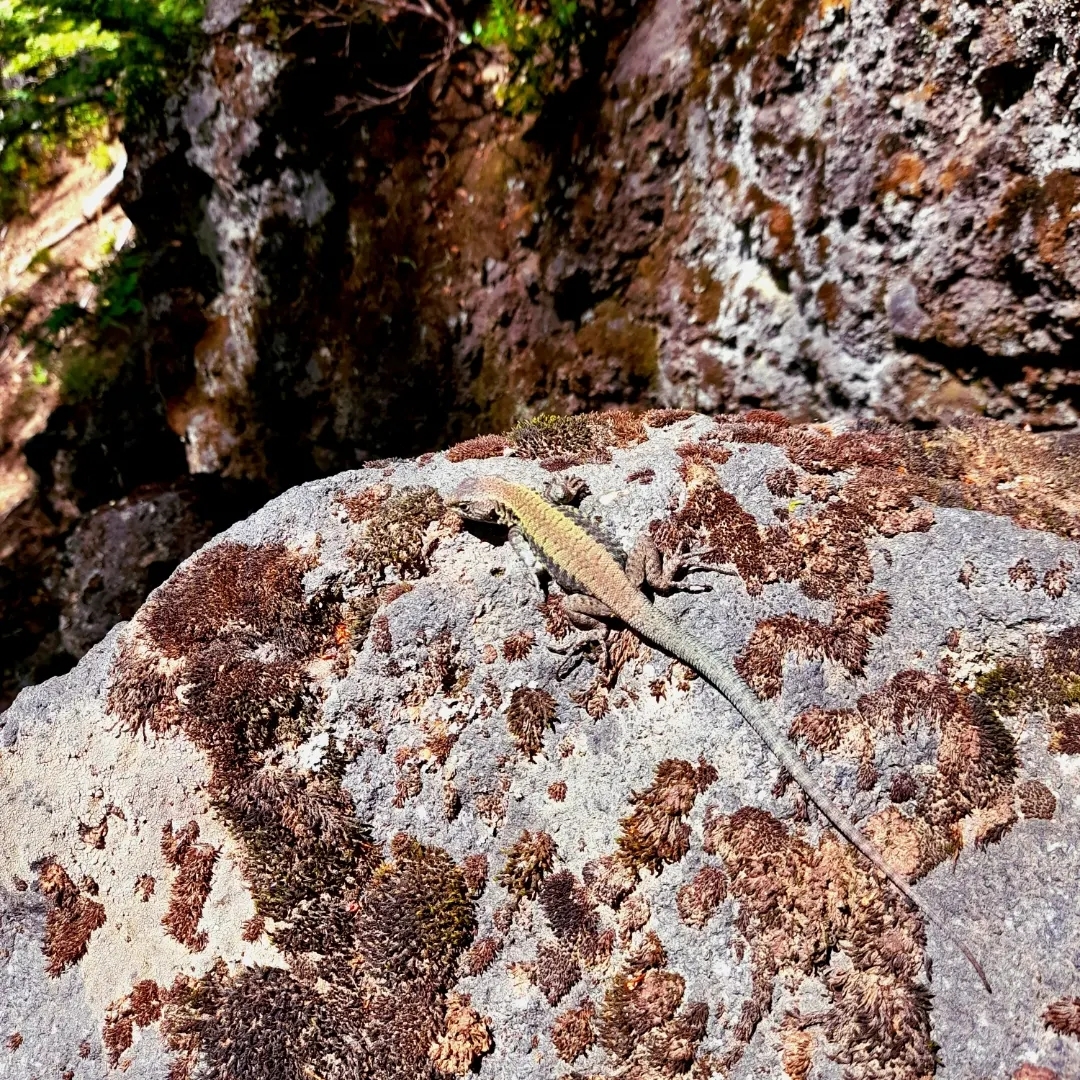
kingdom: Animalia
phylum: Chordata
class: Squamata
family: Liolaemidae
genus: Liolaemus
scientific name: Liolaemus pictus
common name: Painted tree iguana
